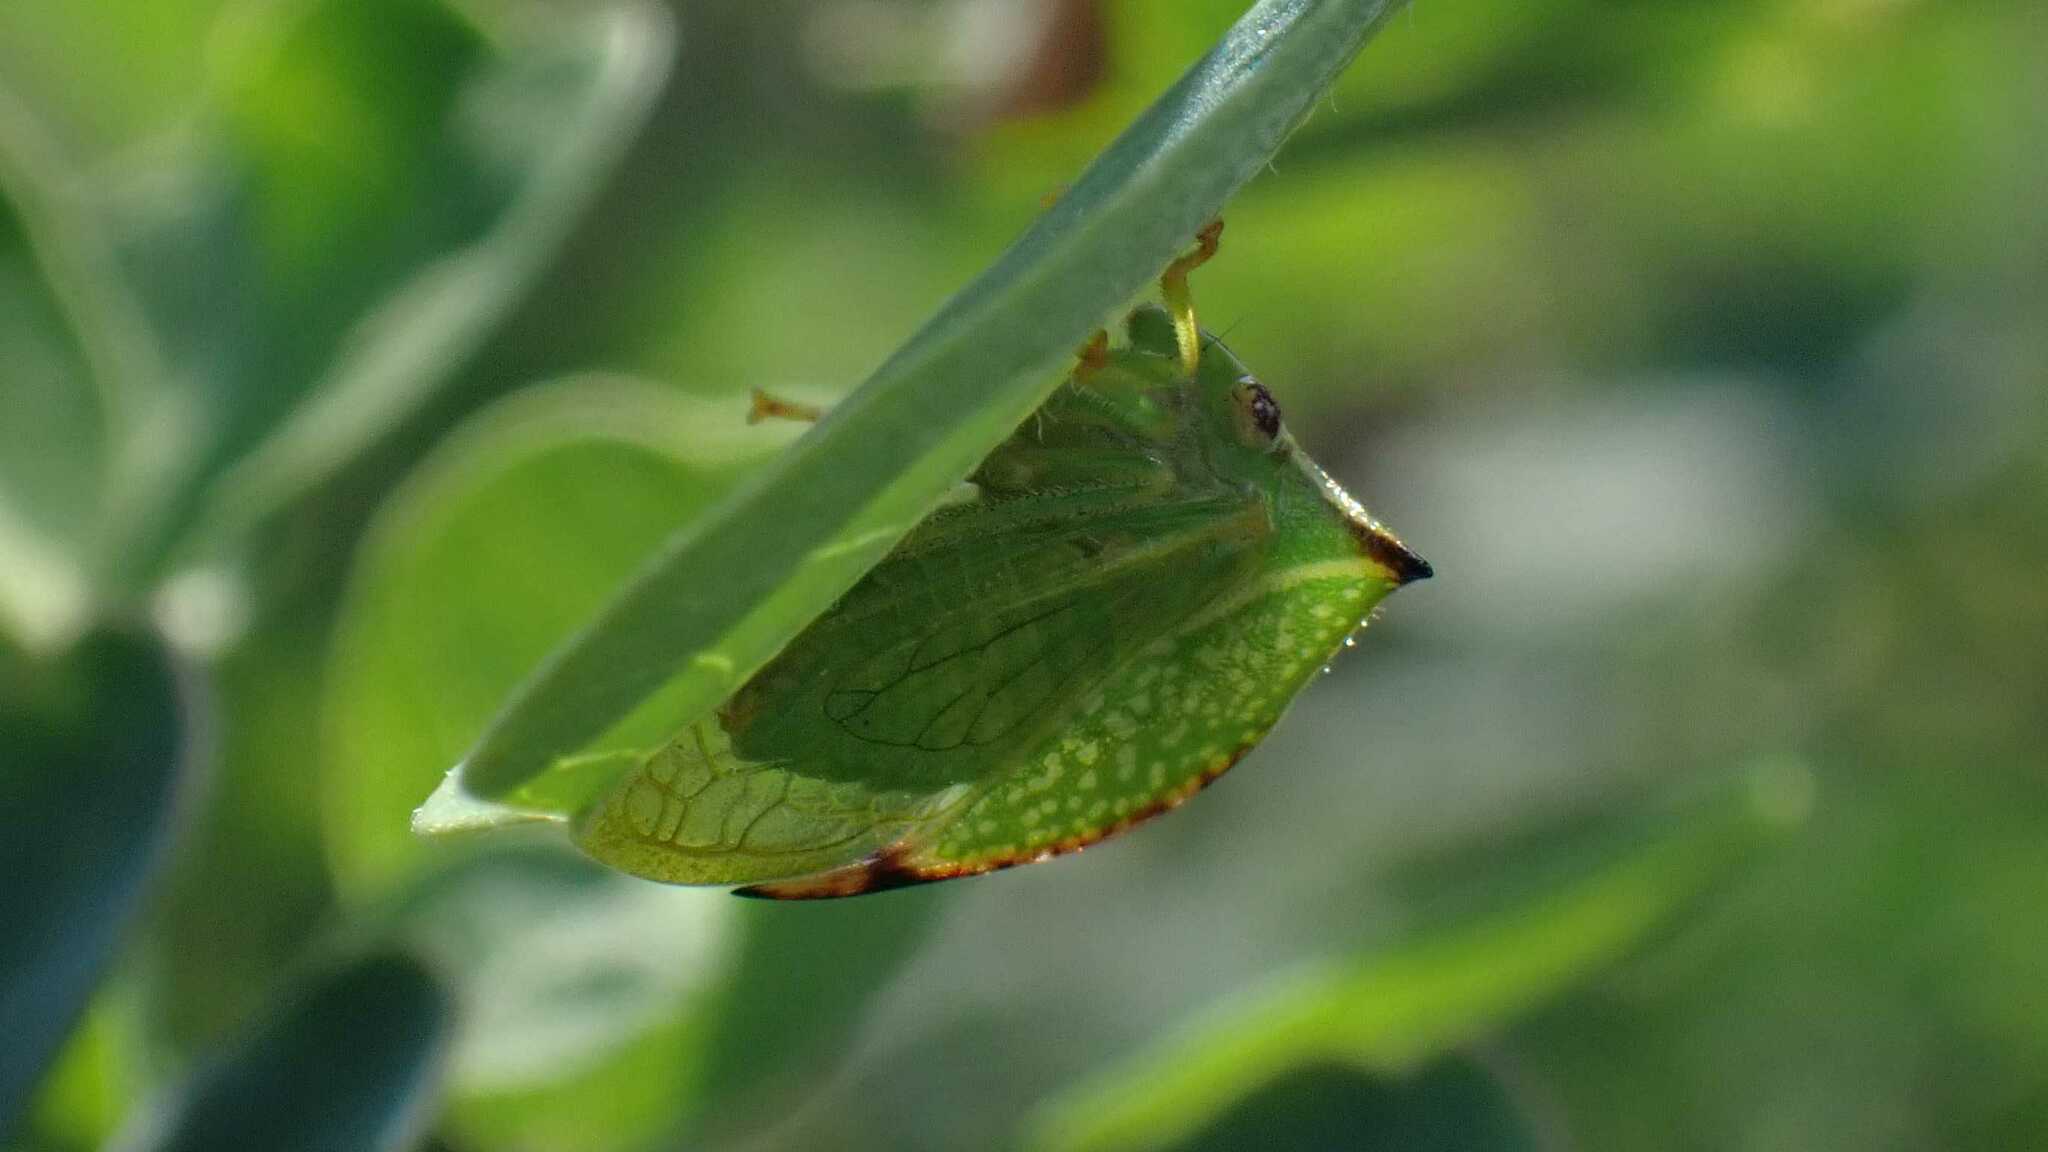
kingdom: Animalia
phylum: Arthropoda
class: Insecta
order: Hemiptera
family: Membracidae
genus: Stictocephala
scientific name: Stictocephala bisonia
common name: American buffalo treehopper
